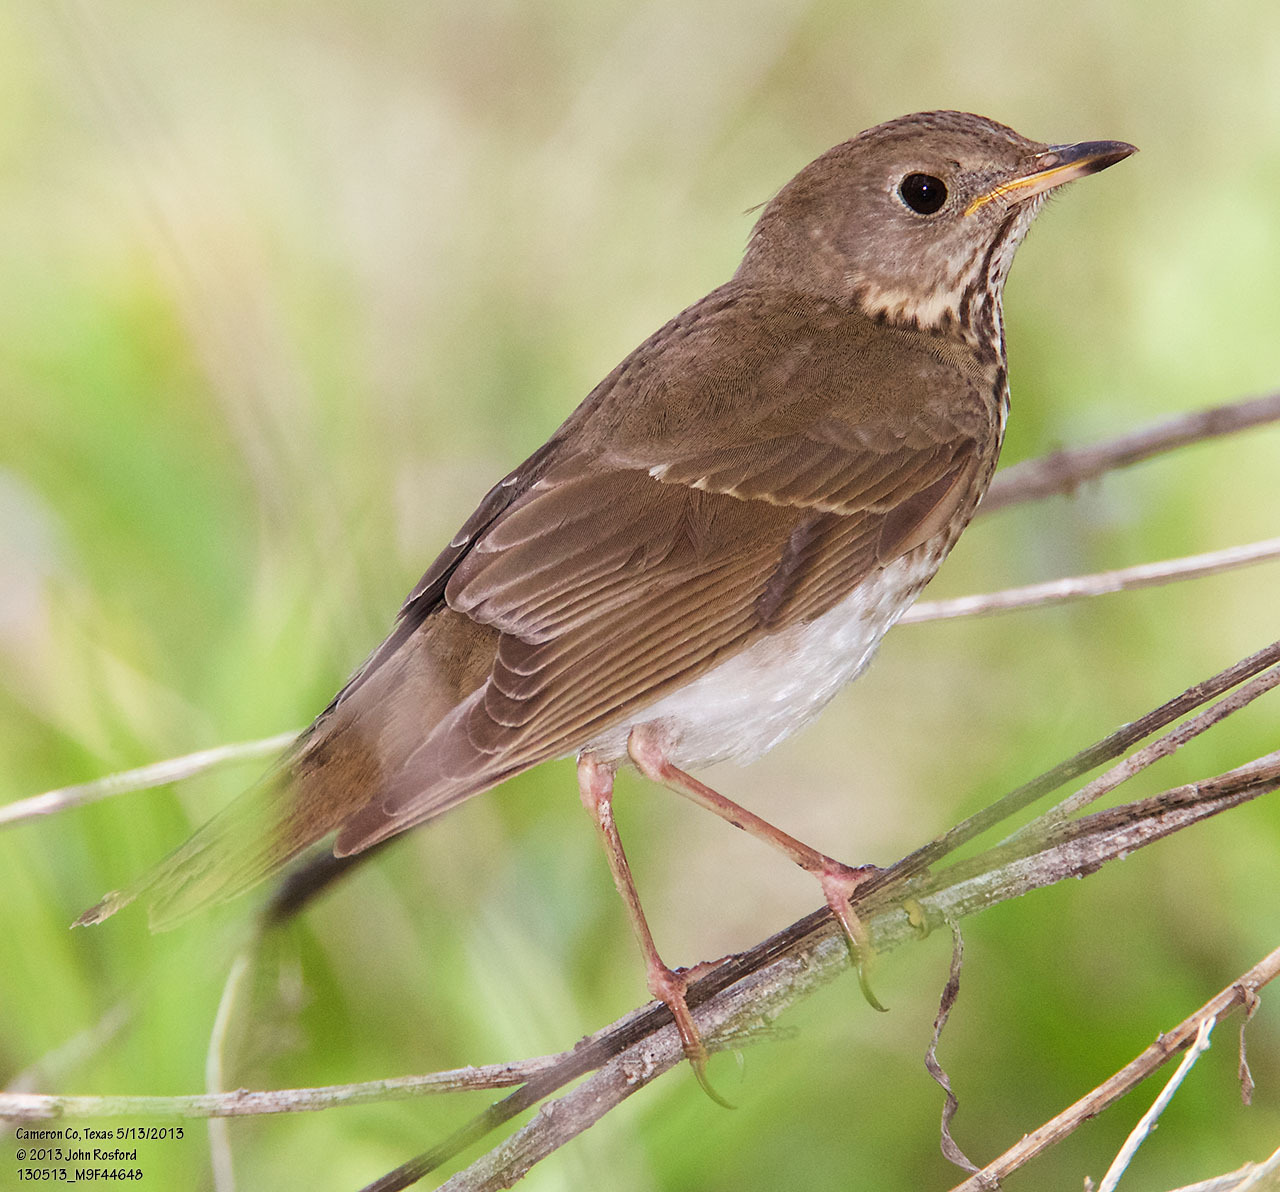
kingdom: Animalia
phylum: Chordata
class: Aves
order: Passeriformes
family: Turdidae
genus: Catharus
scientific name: Catharus minimus
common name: Grey-cheeked thrush
